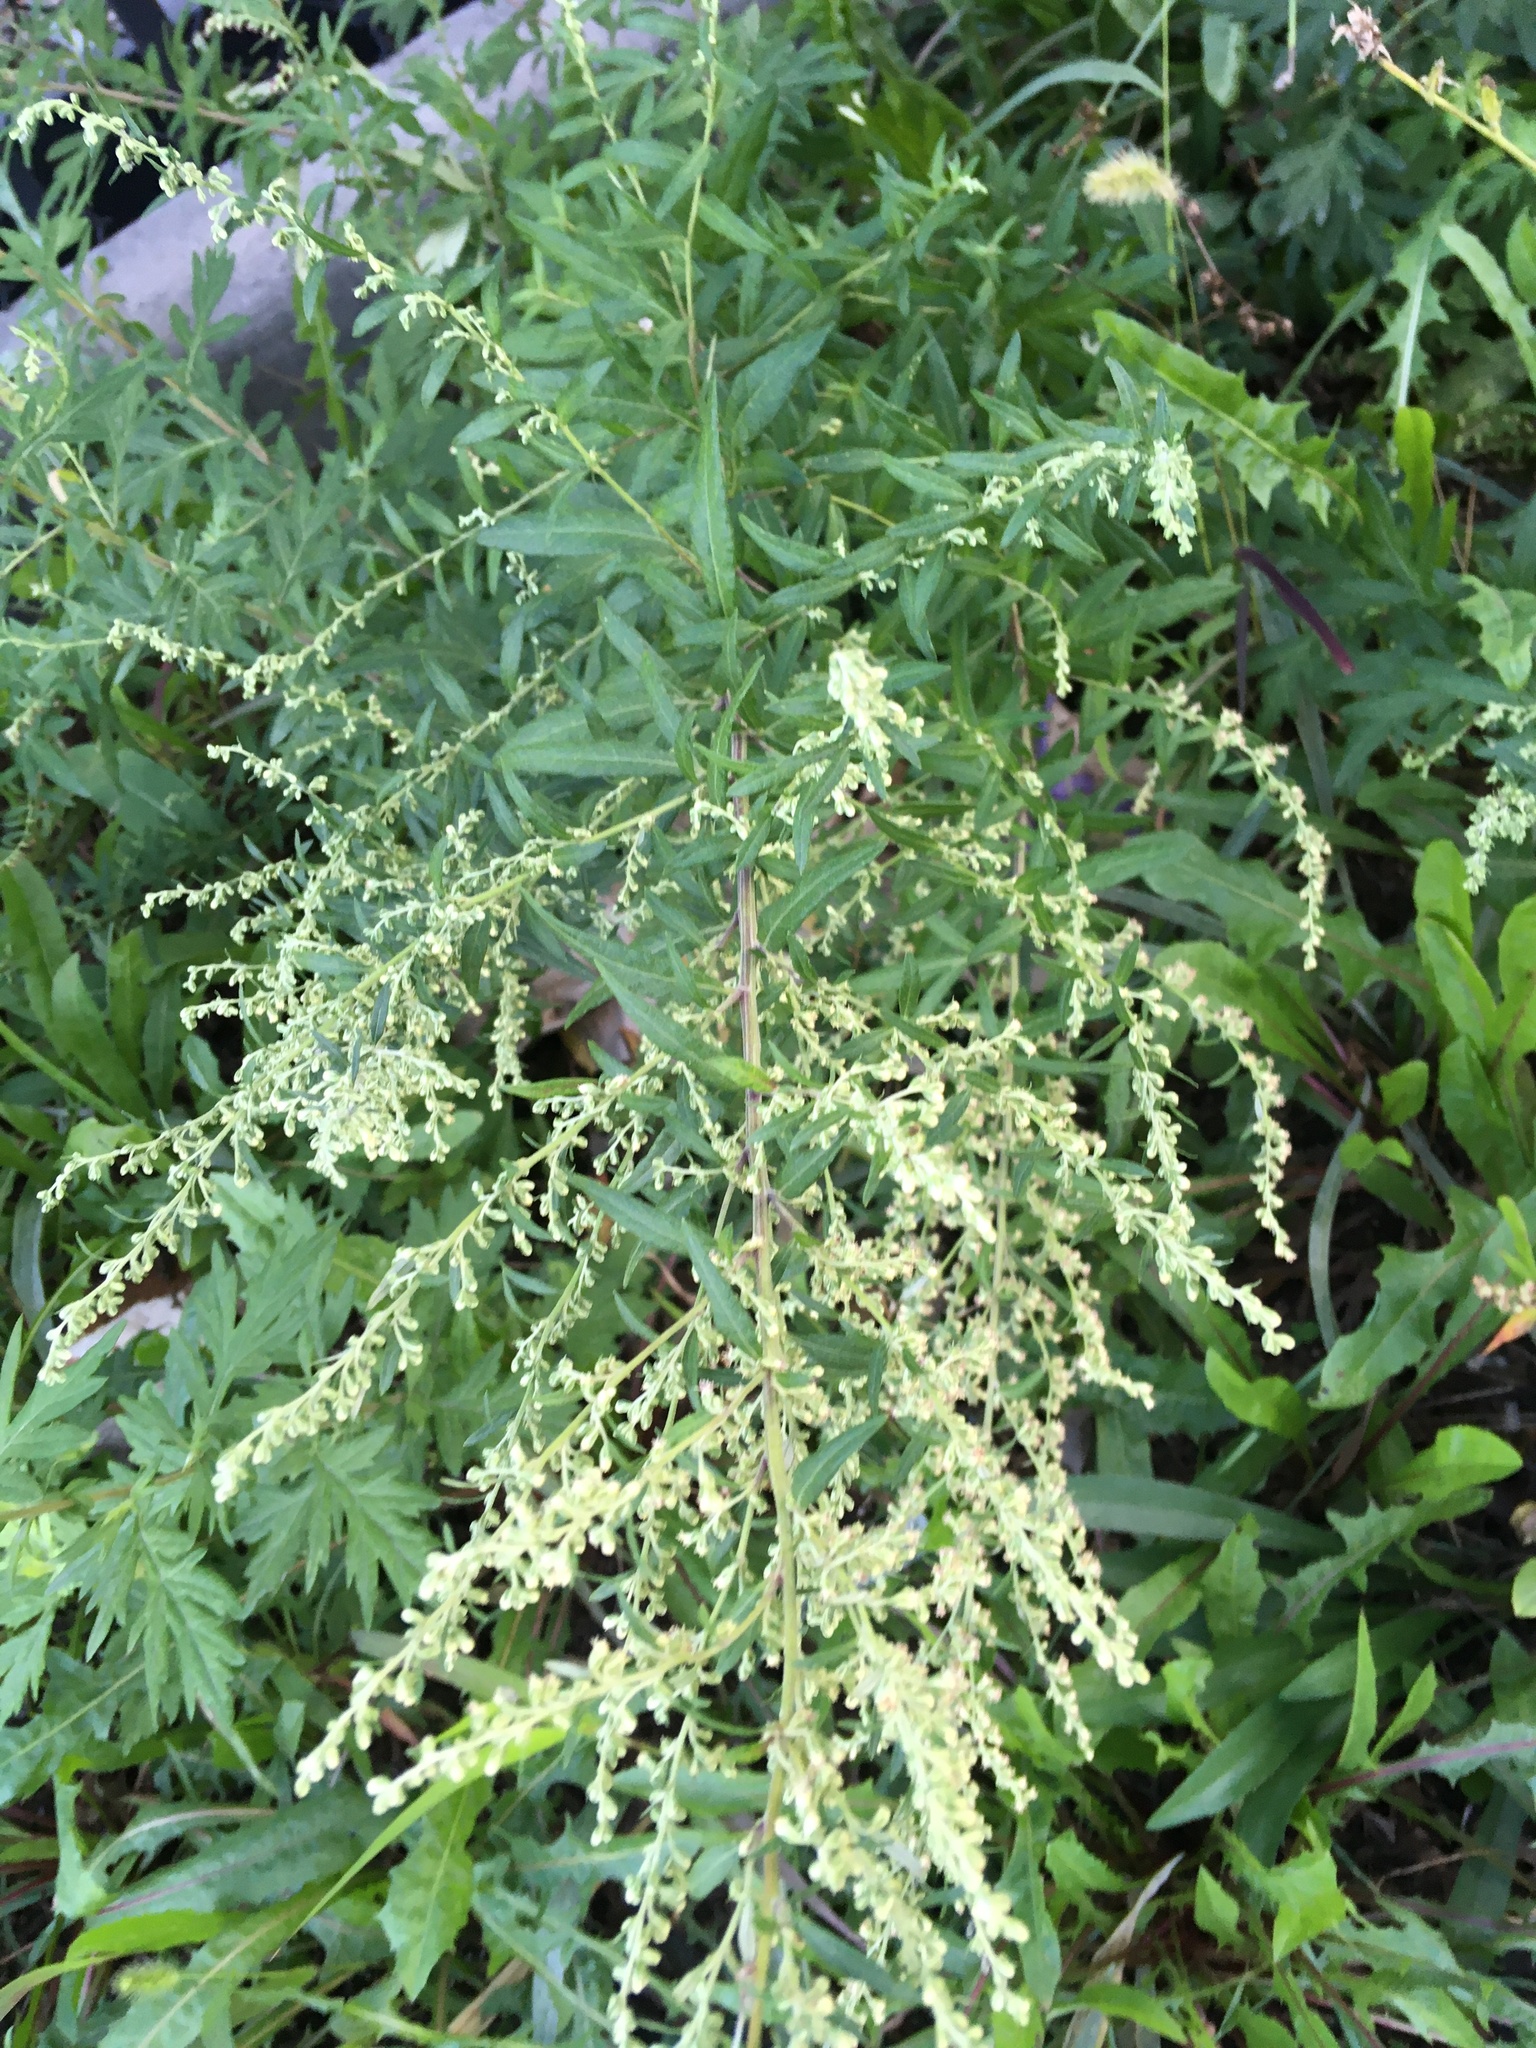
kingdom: Plantae
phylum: Tracheophyta
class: Magnoliopsida
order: Asterales
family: Asteraceae
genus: Artemisia
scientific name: Artemisia vulgaris
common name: Mugwort
